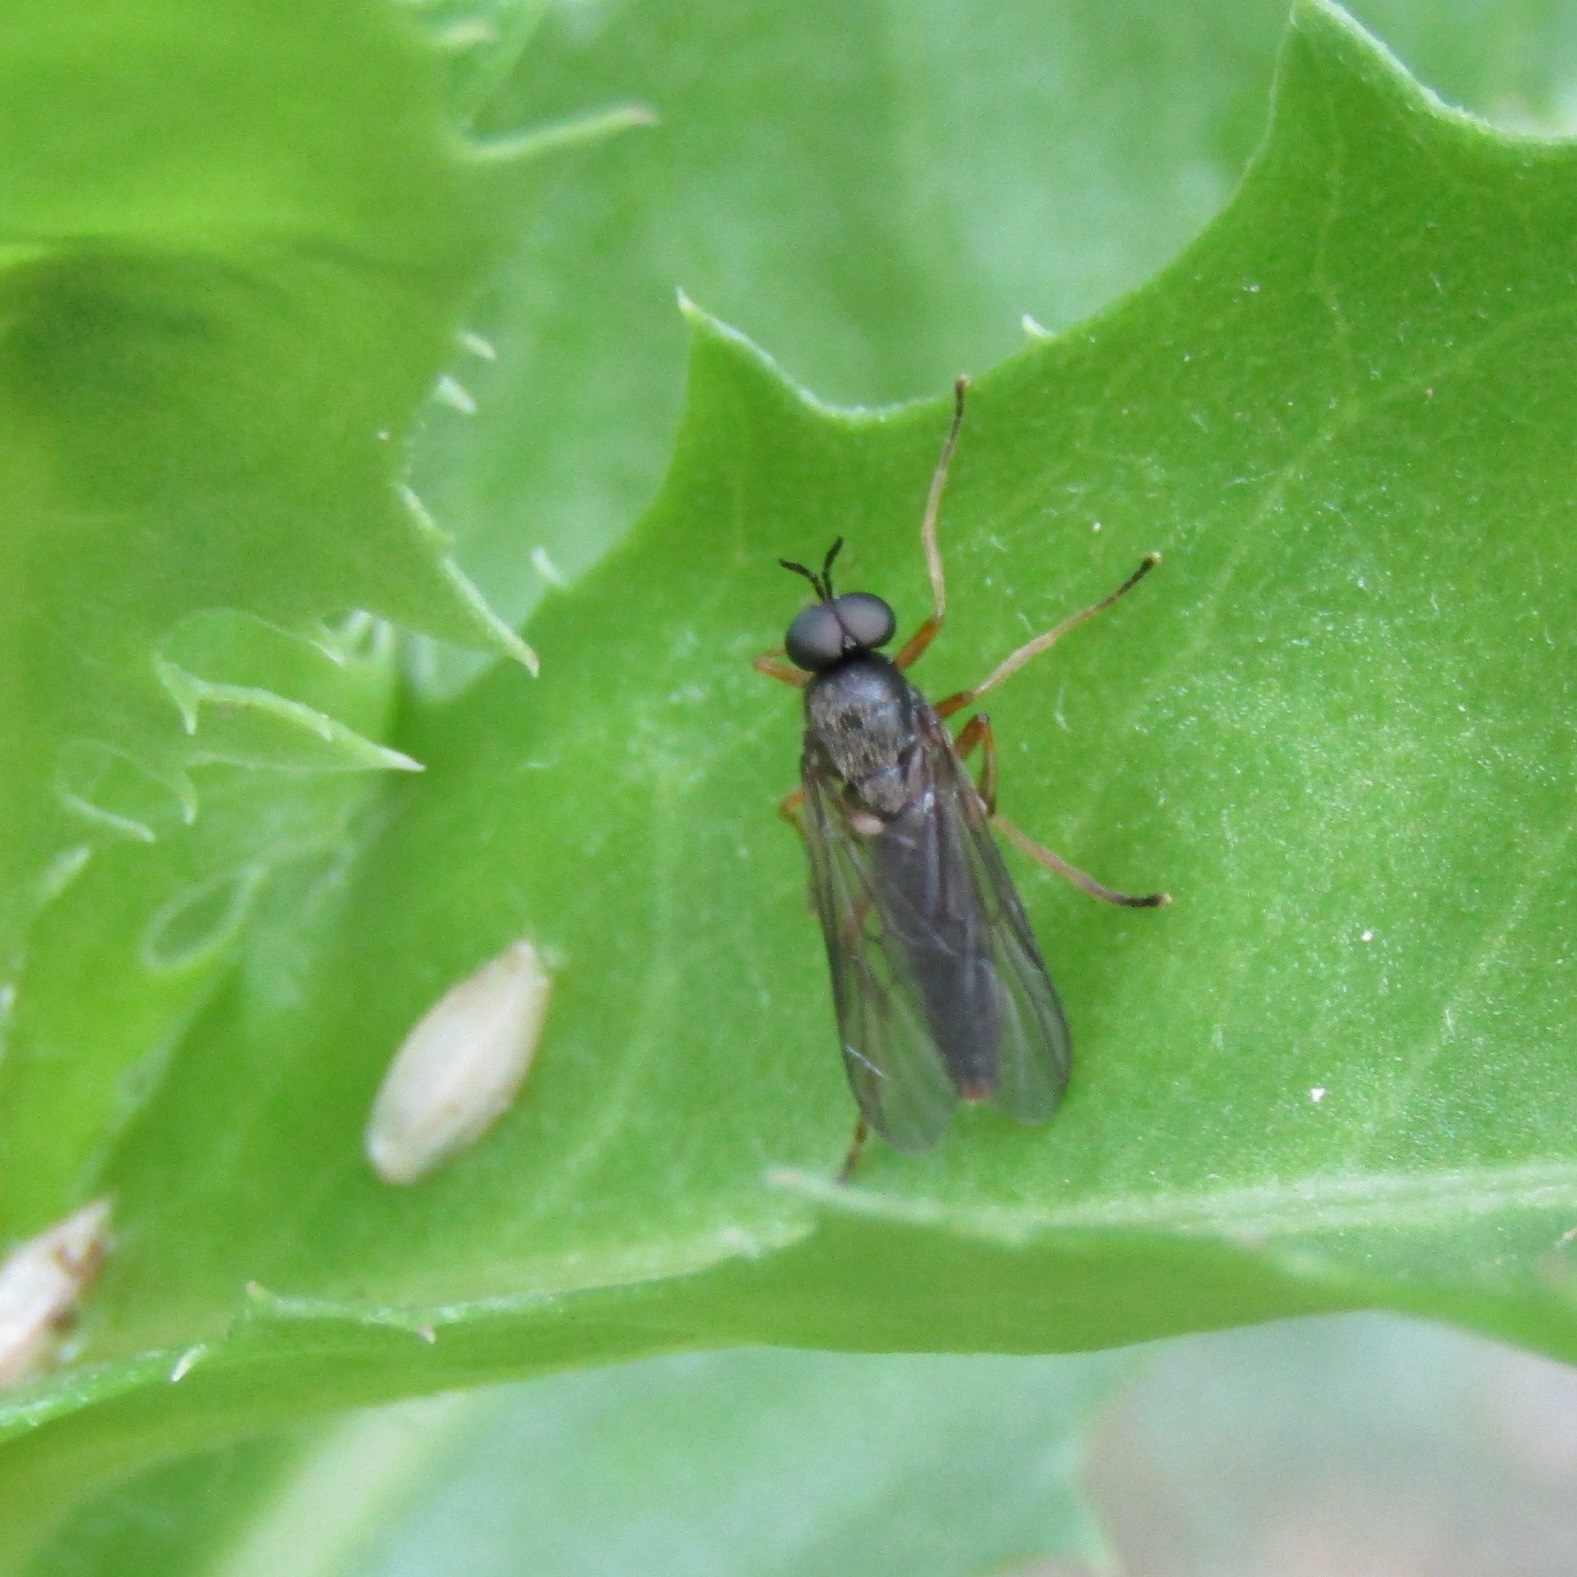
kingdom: Animalia
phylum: Arthropoda
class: Insecta
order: Diptera
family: Stratiomyidae
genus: Inopus
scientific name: Inopus rubriceps
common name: Soldier fly
